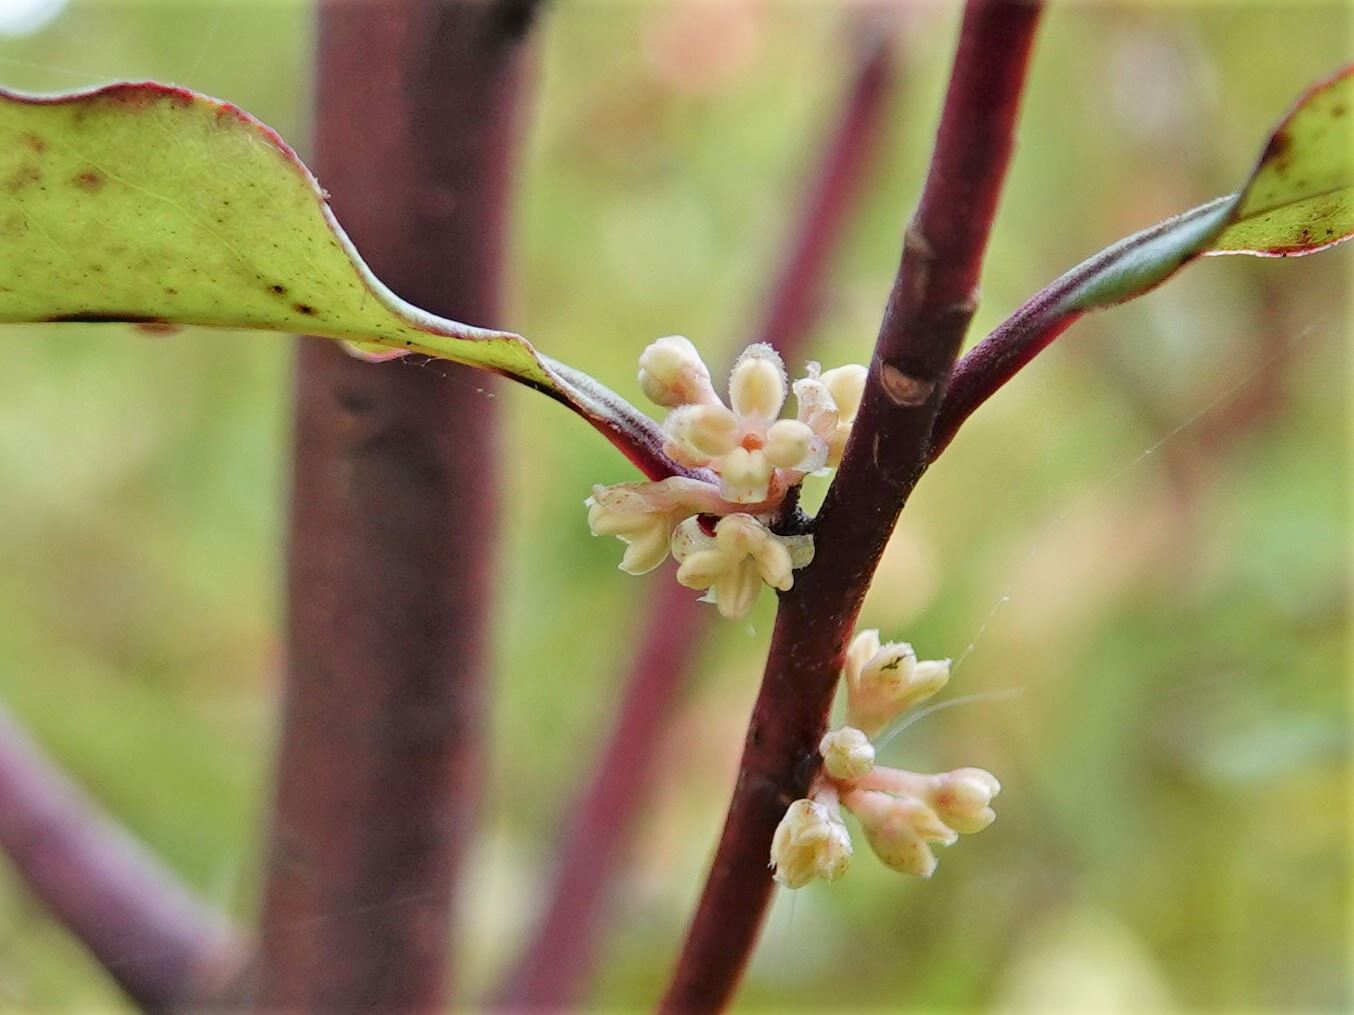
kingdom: Plantae
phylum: Tracheophyta
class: Magnoliopsida
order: Ericales
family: Primulaceae
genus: Myrsine
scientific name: Myrsine australis
